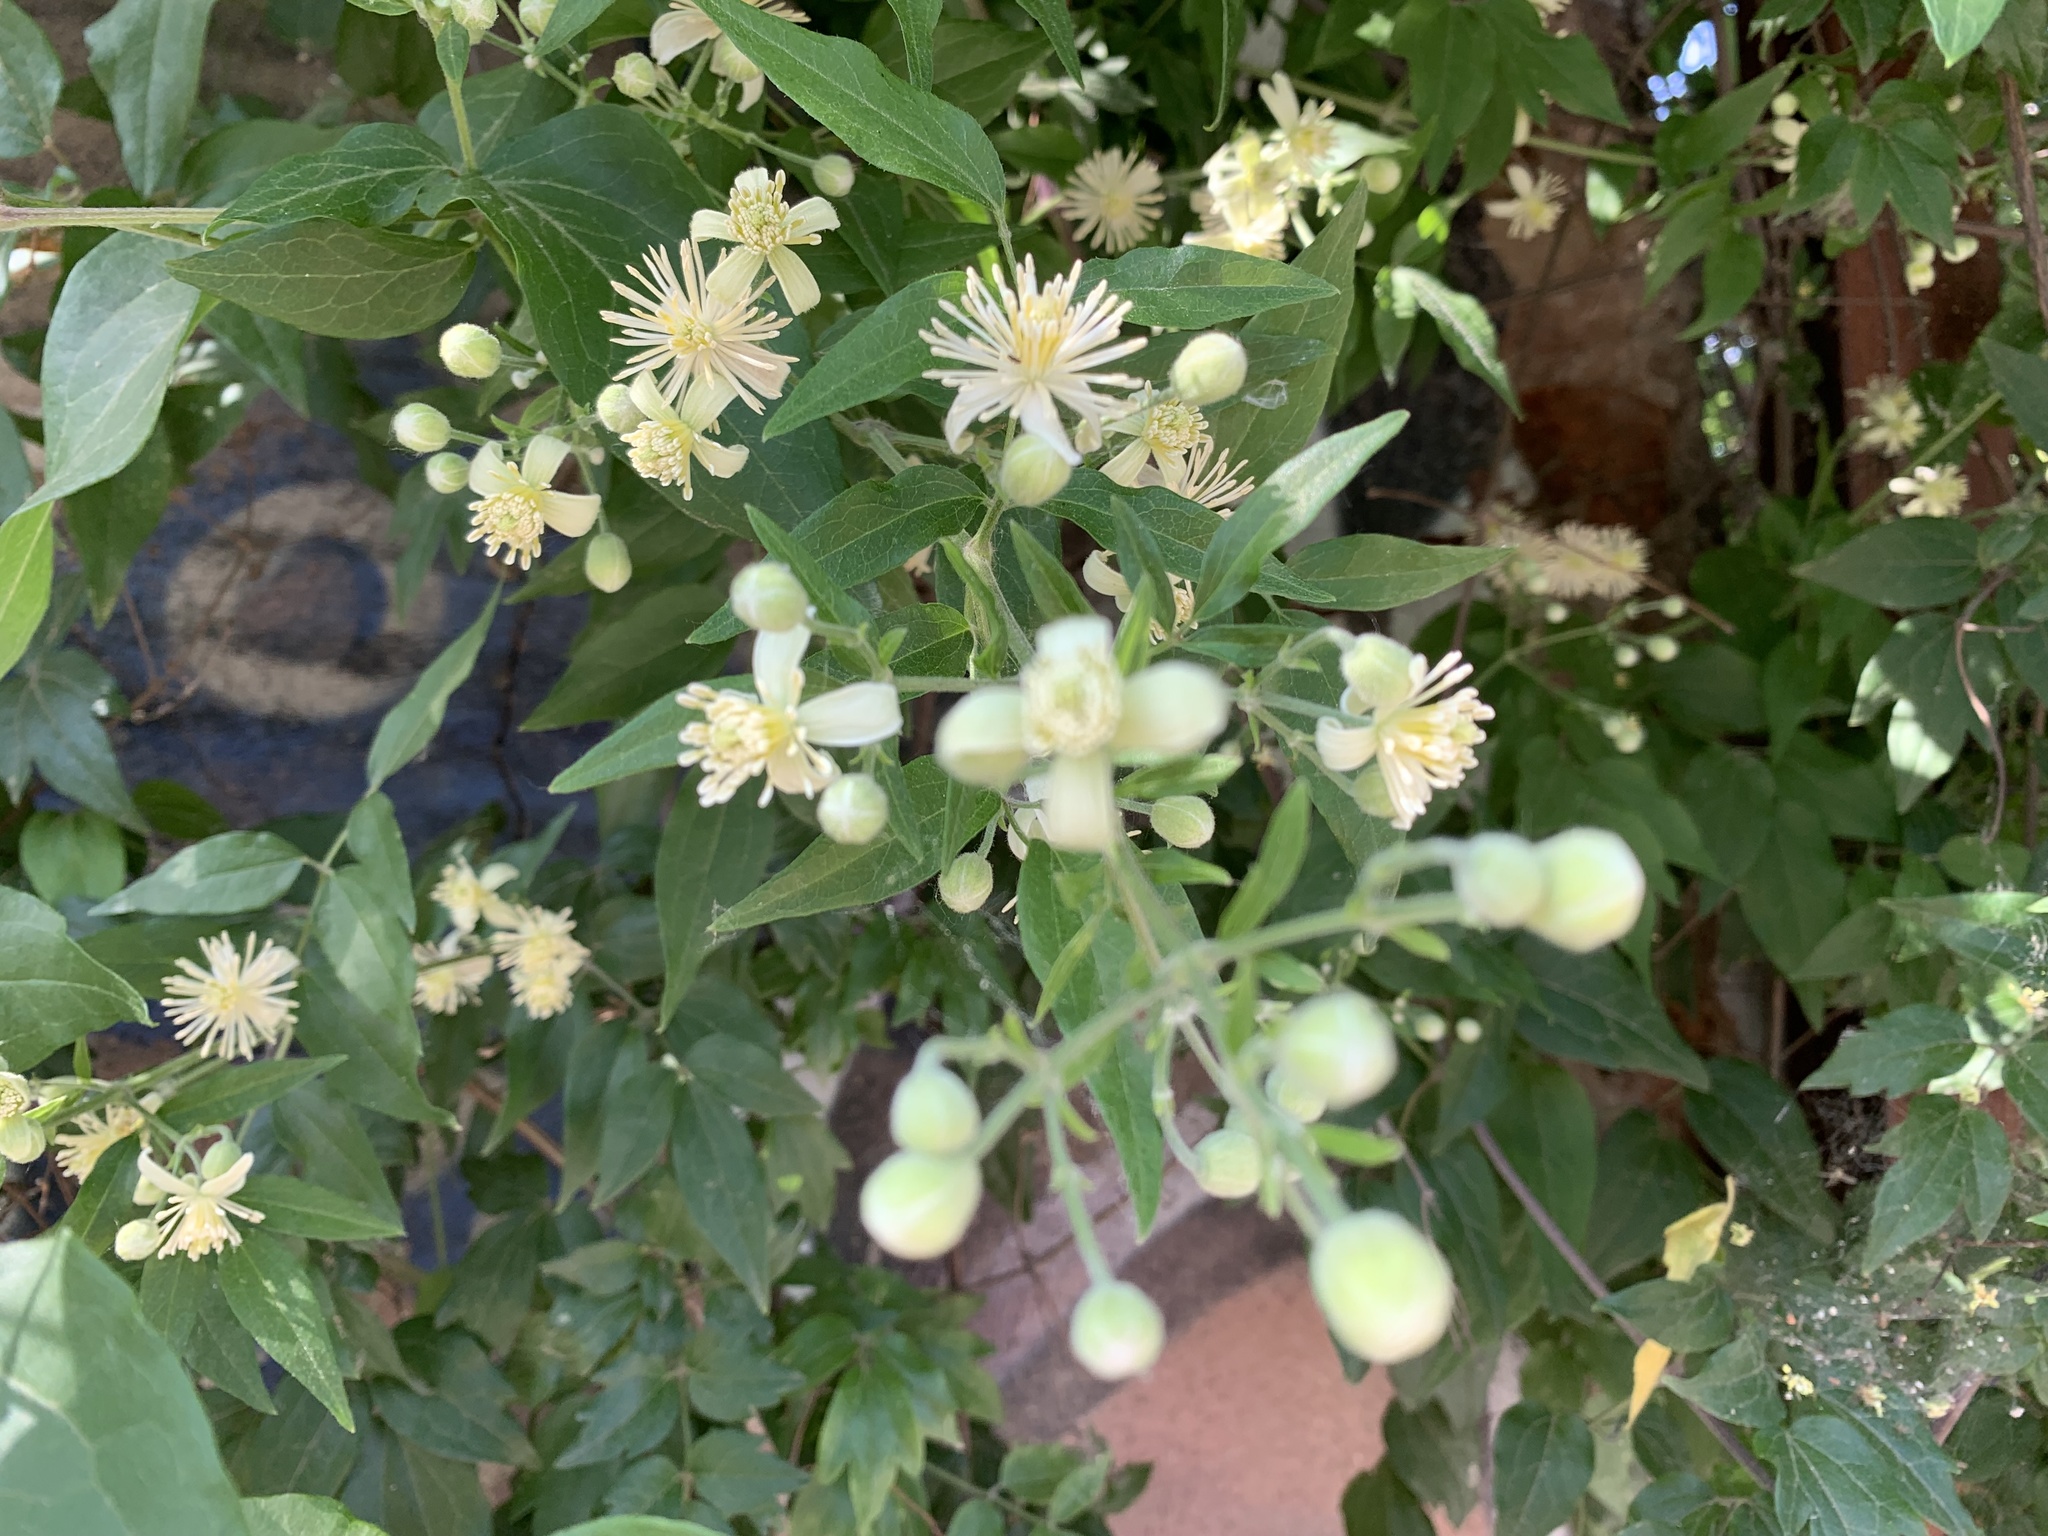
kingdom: Plantae
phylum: Tracheophyta
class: Magnoliopsida
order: Ranunculales
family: Ranunculaceae
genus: Clematis
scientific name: Clematis vitalba
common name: Evergreen clematis
